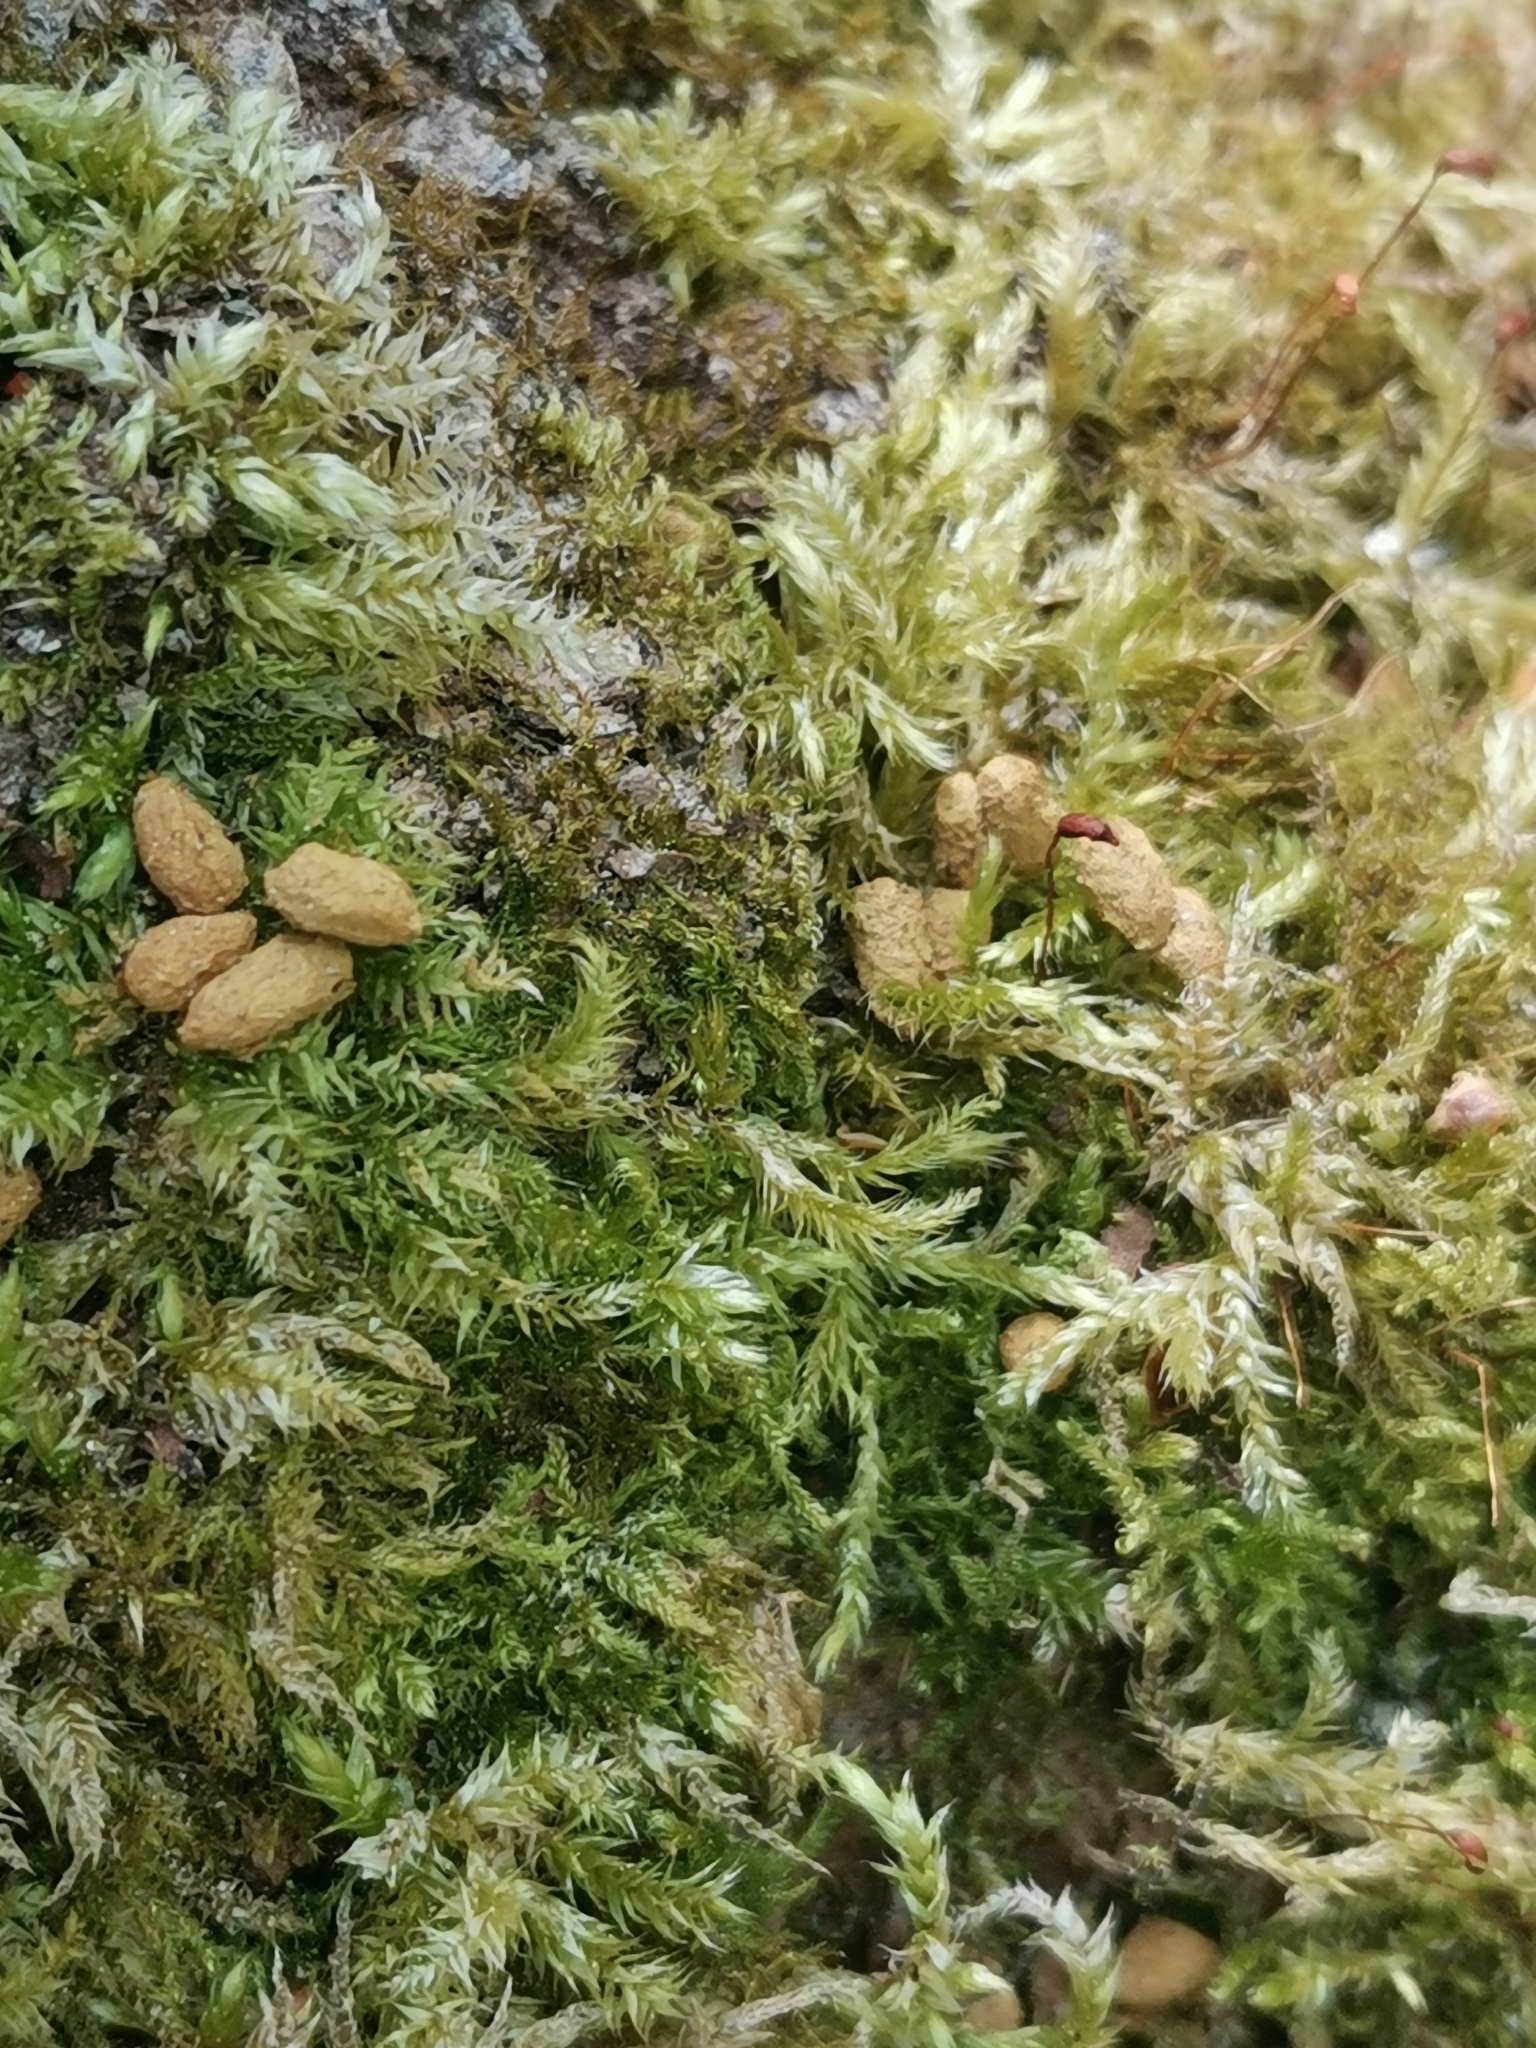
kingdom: Animalia
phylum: Chordata
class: Mammalia
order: Rodentia
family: Sciuridae
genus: Pteromys
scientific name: Pteromys volans
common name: Siberian flying squirrel
